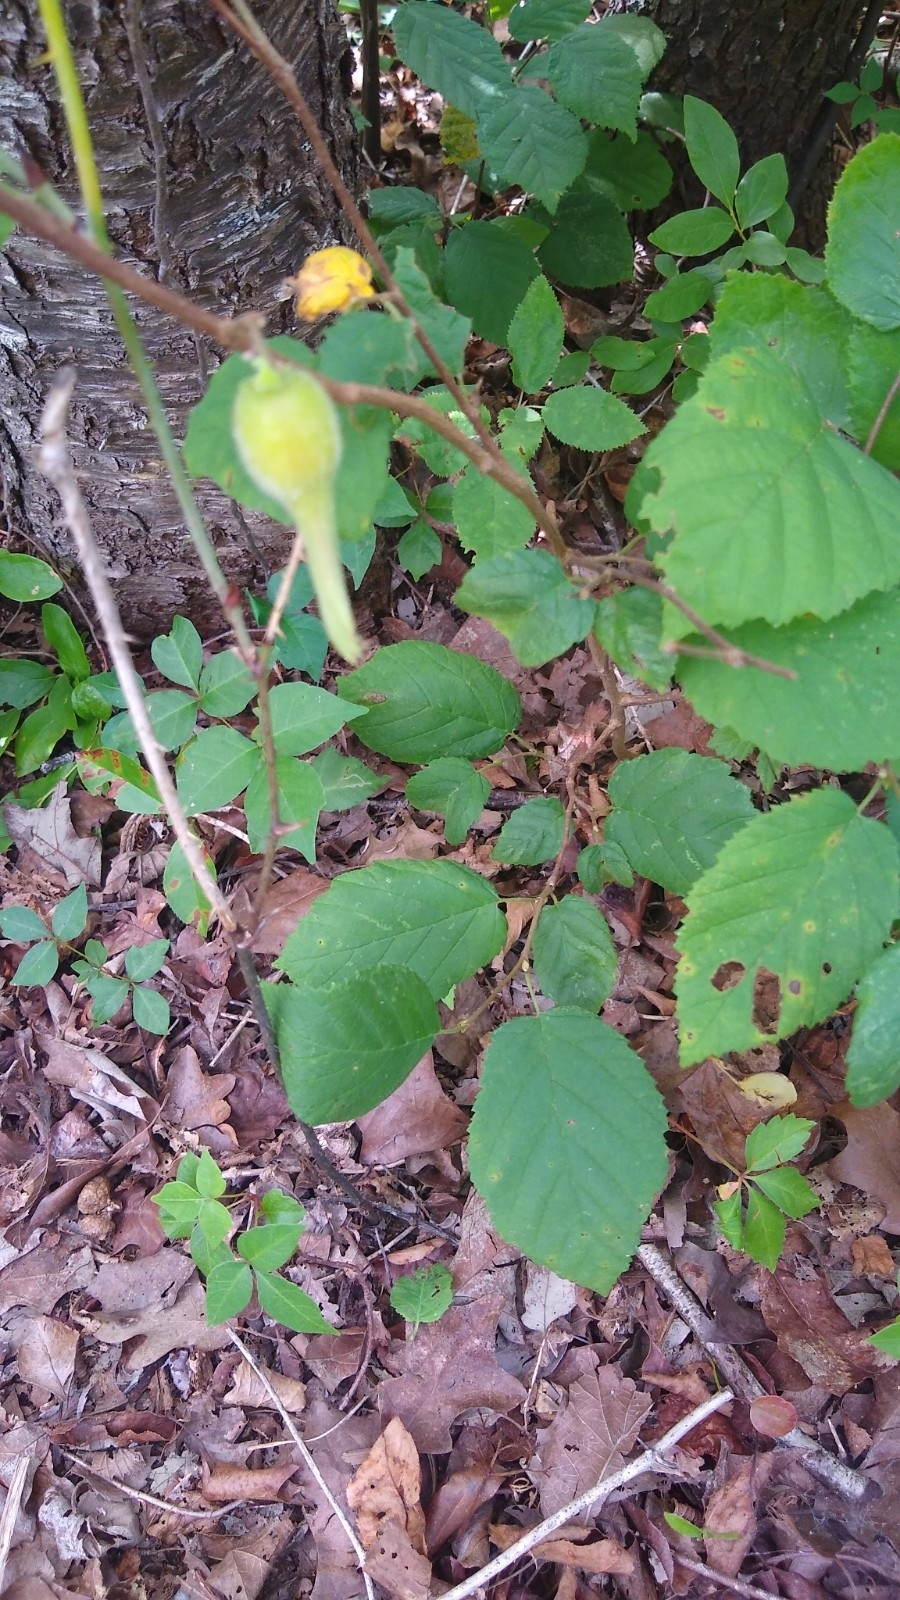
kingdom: Plantae
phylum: Tracheophyta
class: Magnoliopsida
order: Fagales
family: Betulaceae
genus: Corylus
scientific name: Corylus cornuta
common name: Beaked hazel
